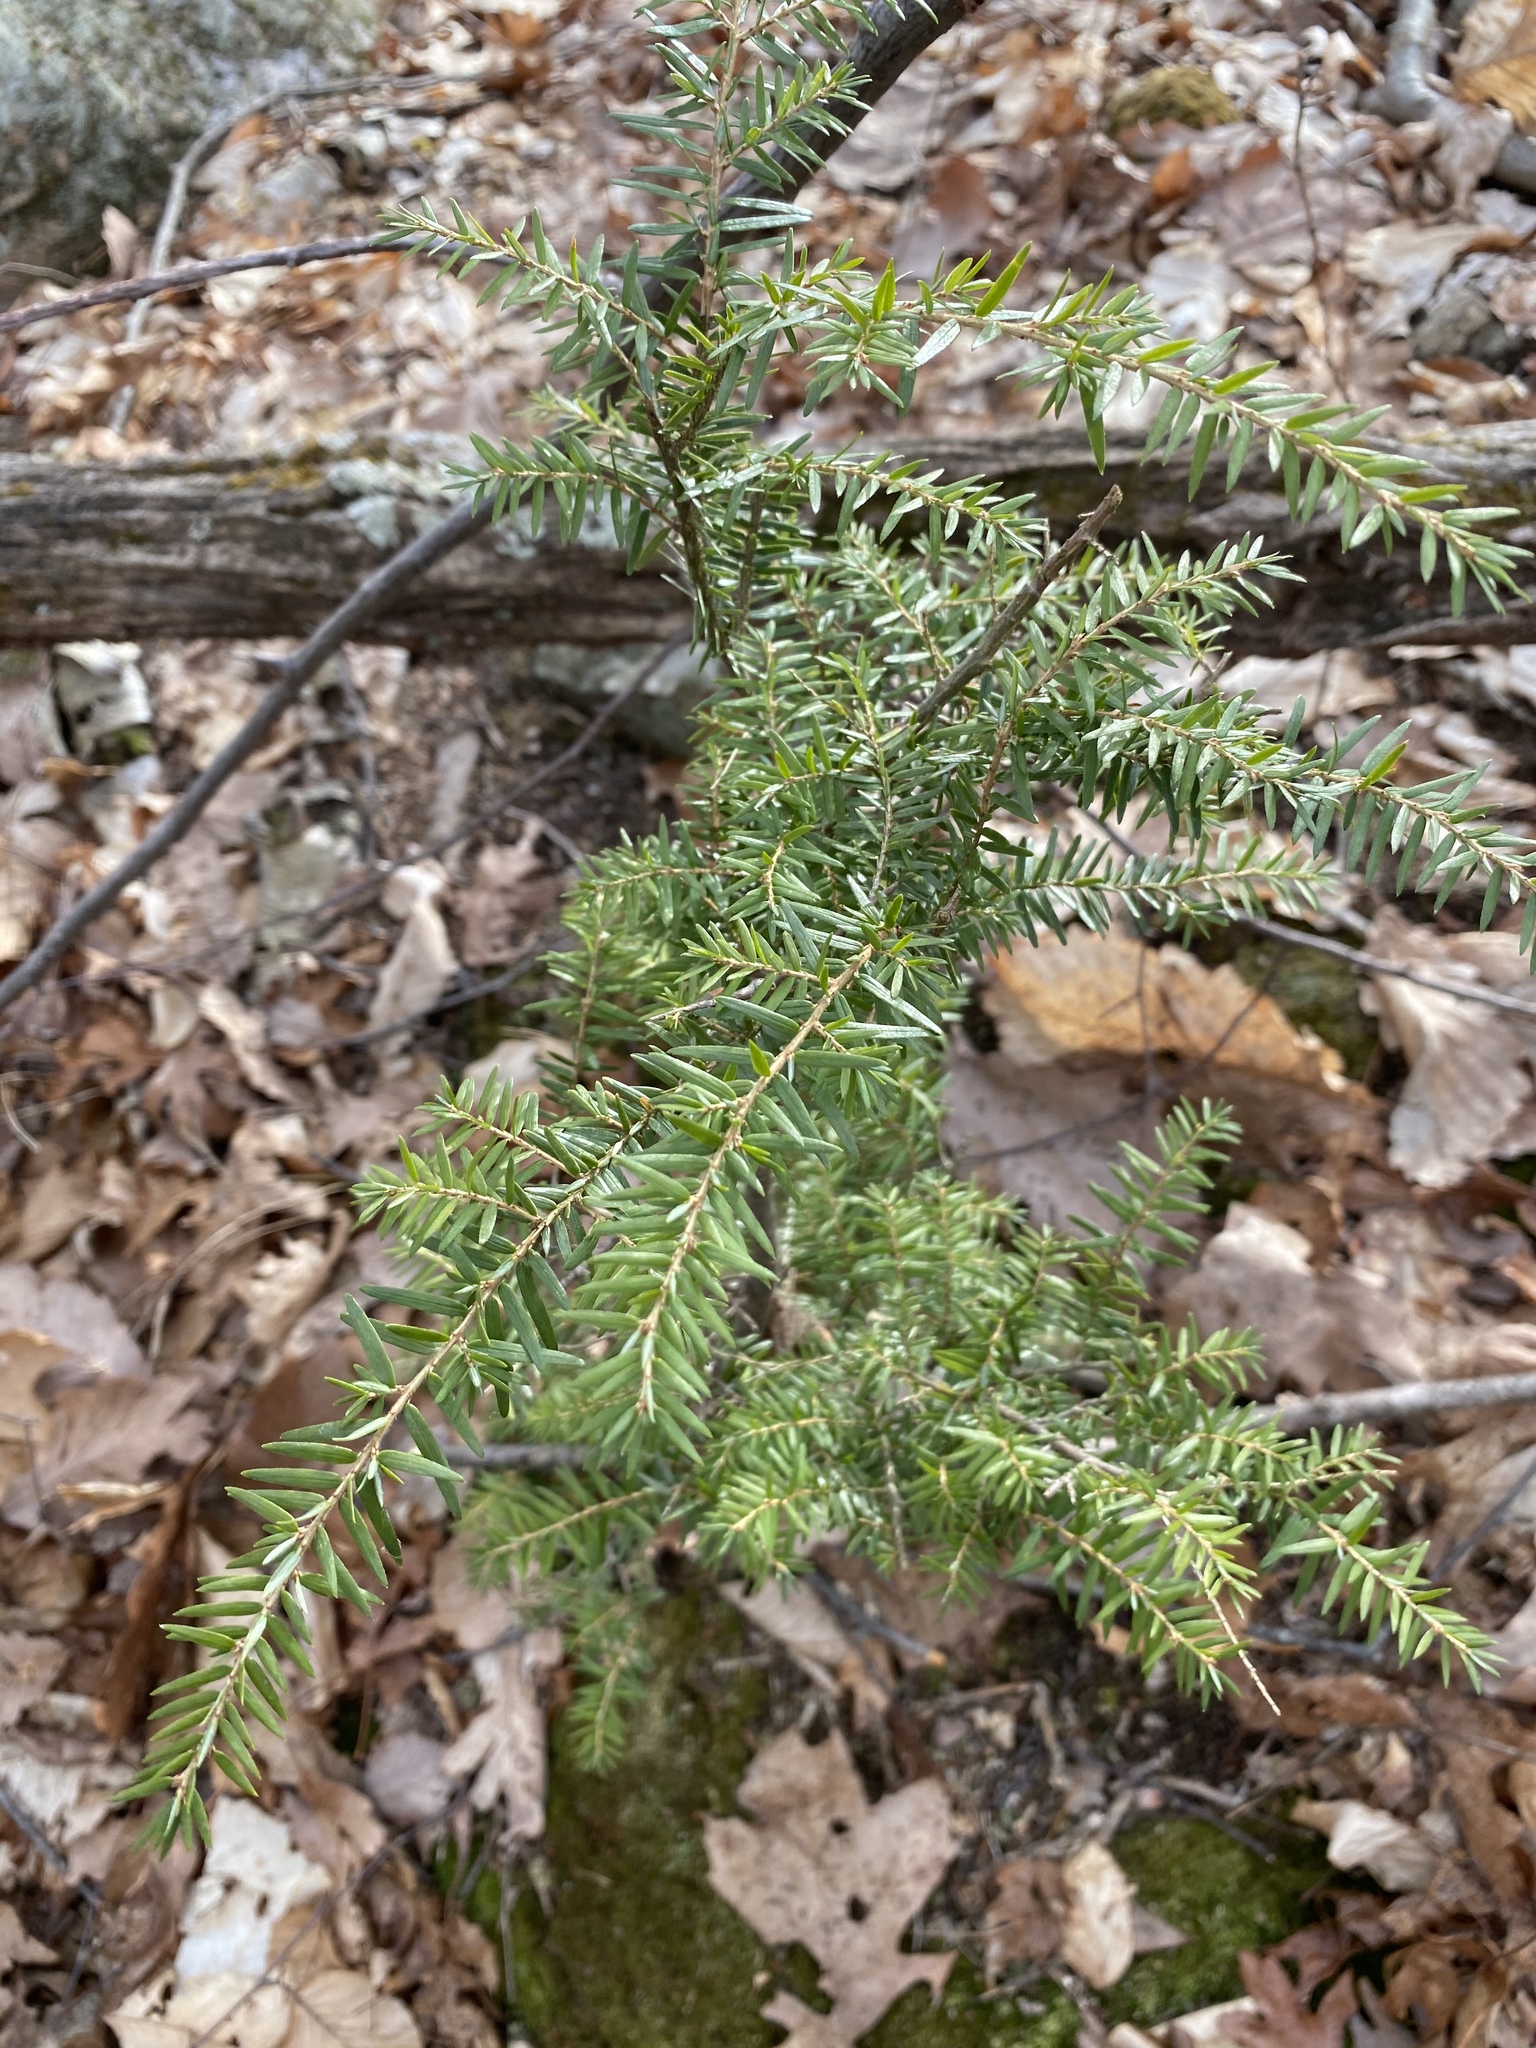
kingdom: Plantae
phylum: Tracheophyta
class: Pinopsida
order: Pinales
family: Pinaceae
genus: Tsuga
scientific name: Tsuga canadensis
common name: Eastern hemlock
